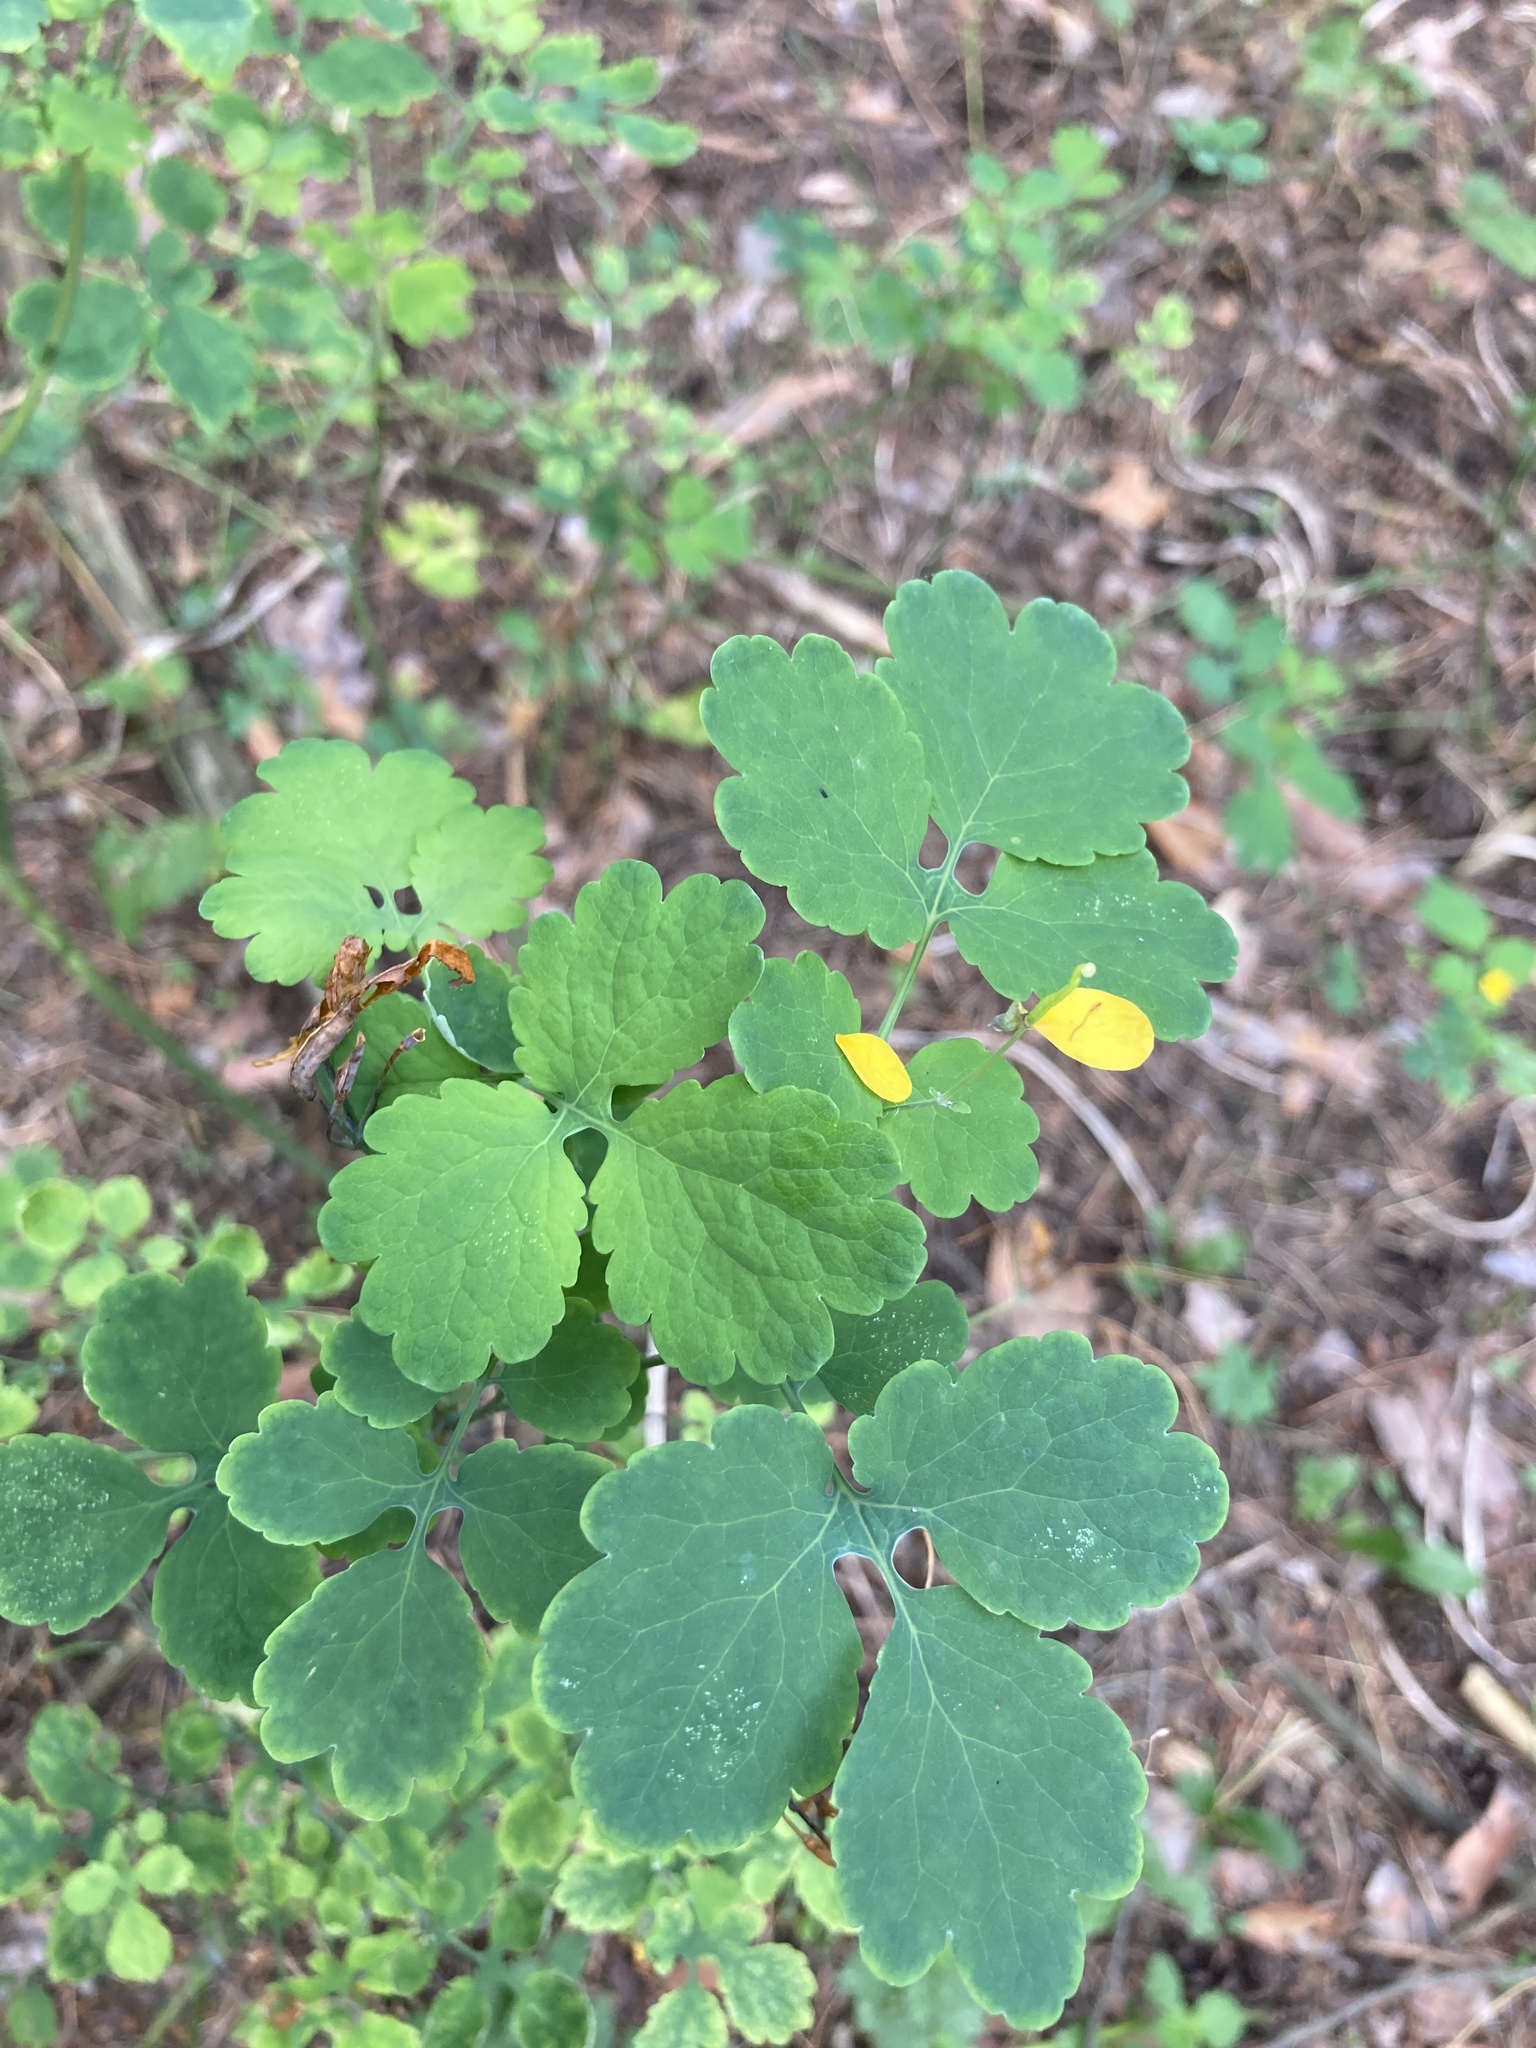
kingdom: Plantae
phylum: Tracheophyta
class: Magnoliopsida
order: Ranunculales
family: Papaveraceae
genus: Chelidonium
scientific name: Chelidonium majus
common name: Greater celandine
